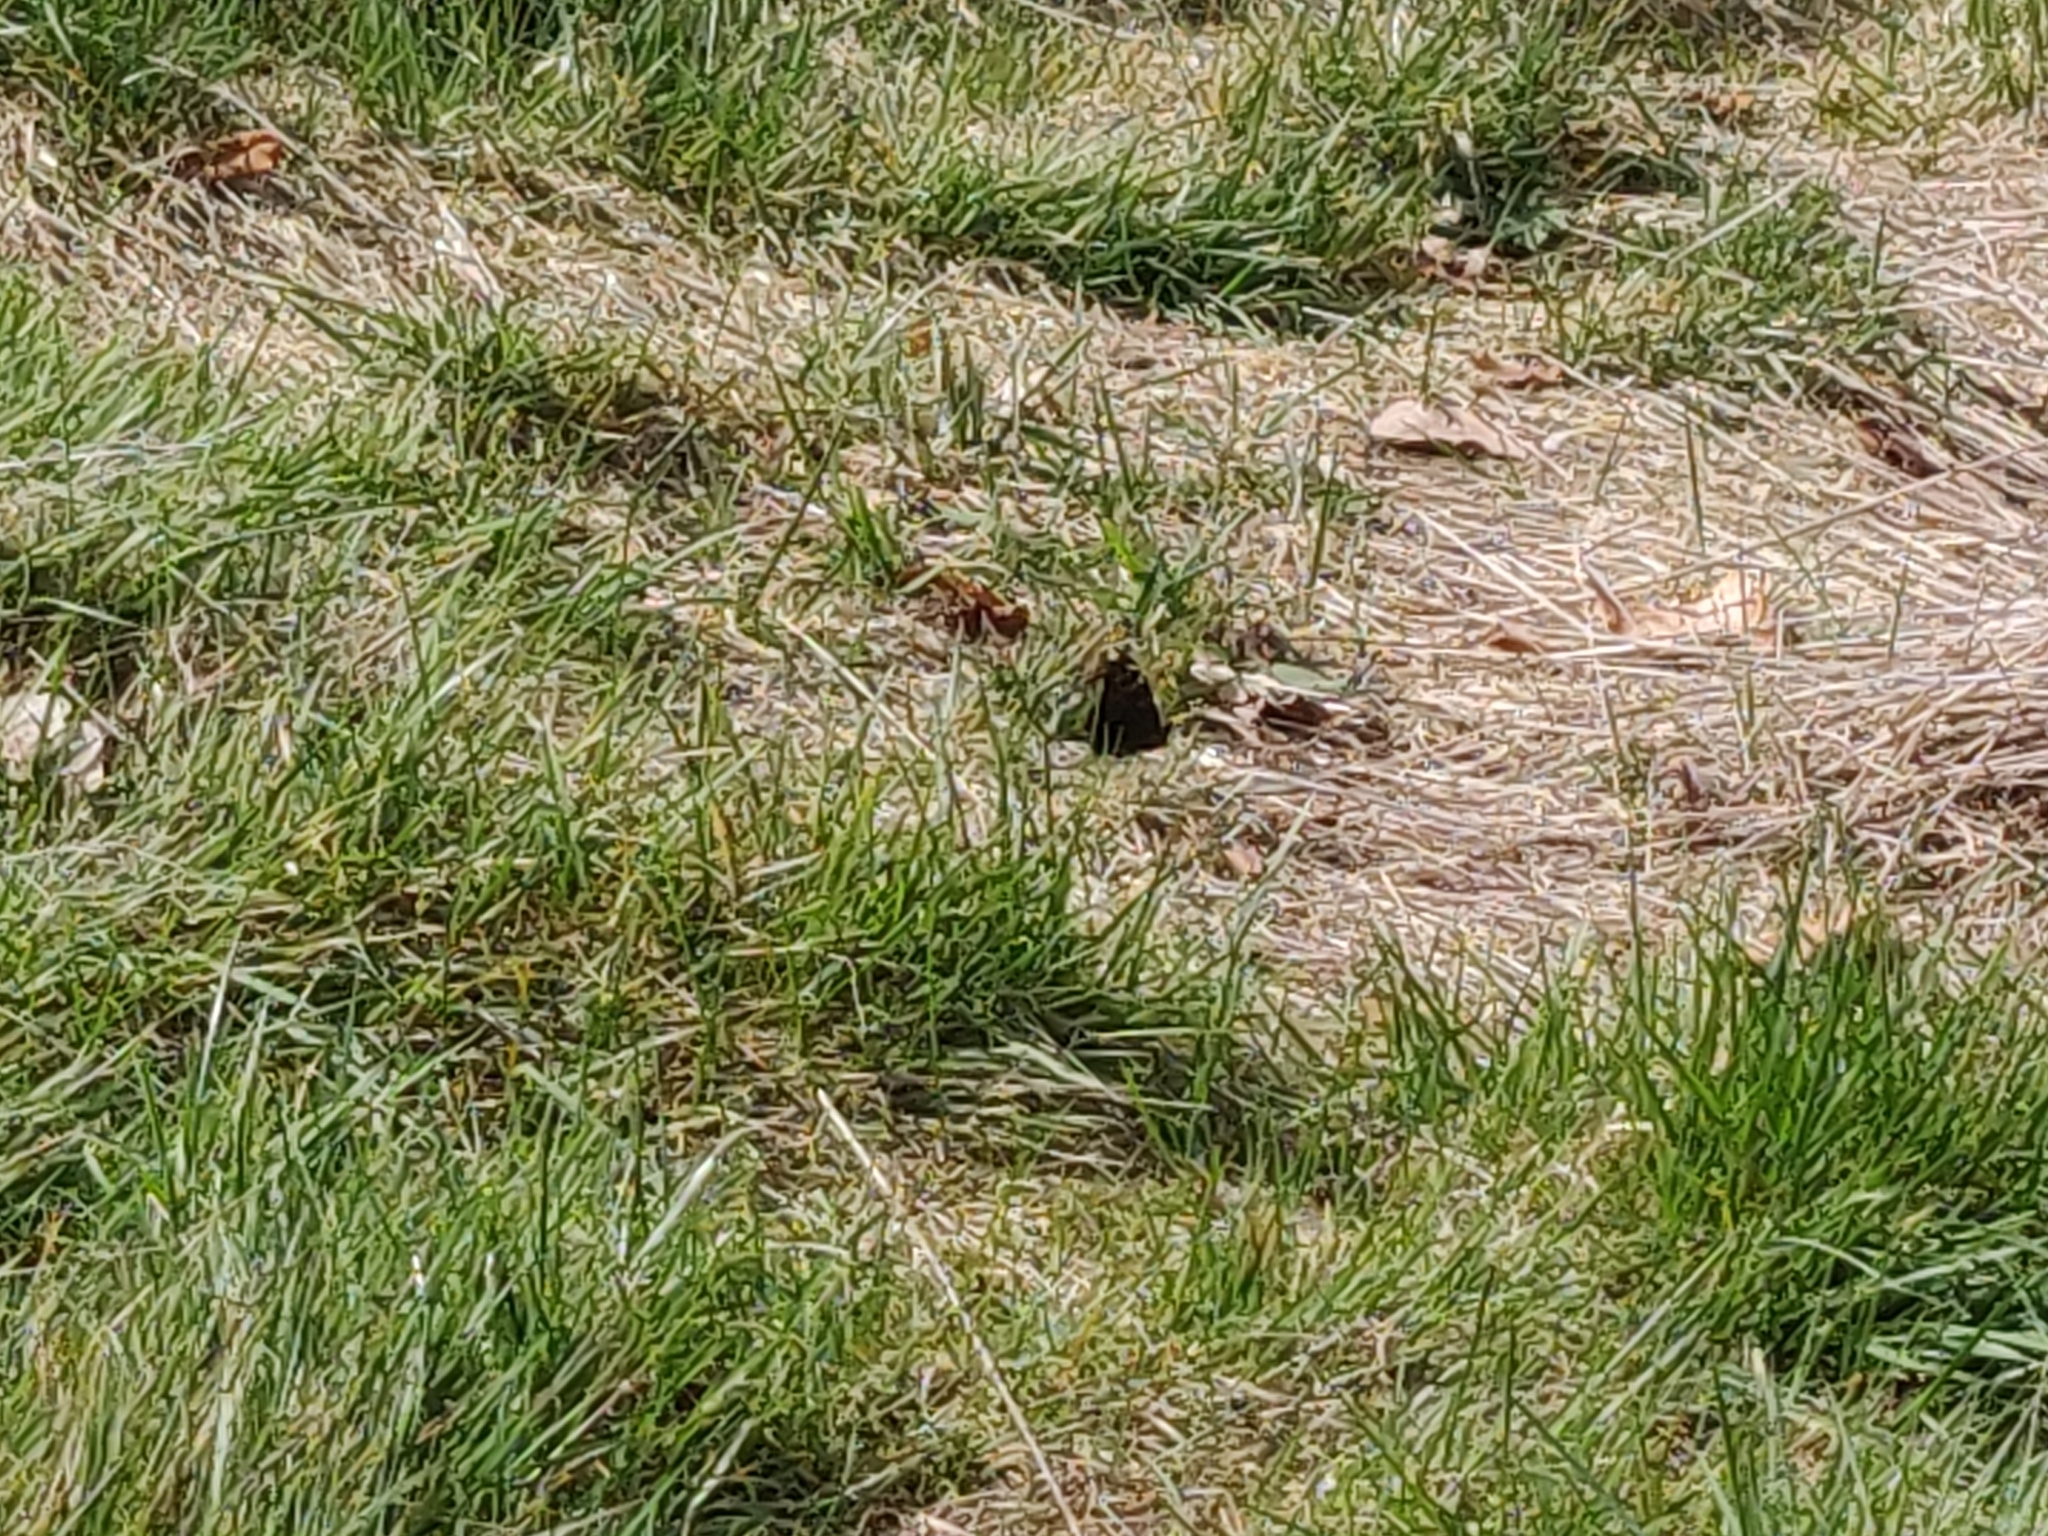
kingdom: Animalia
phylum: Arthropoda
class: Insecta
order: Lepidoptera
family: Nymphalidae
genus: Aglais
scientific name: Aglais io
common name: Peacock
